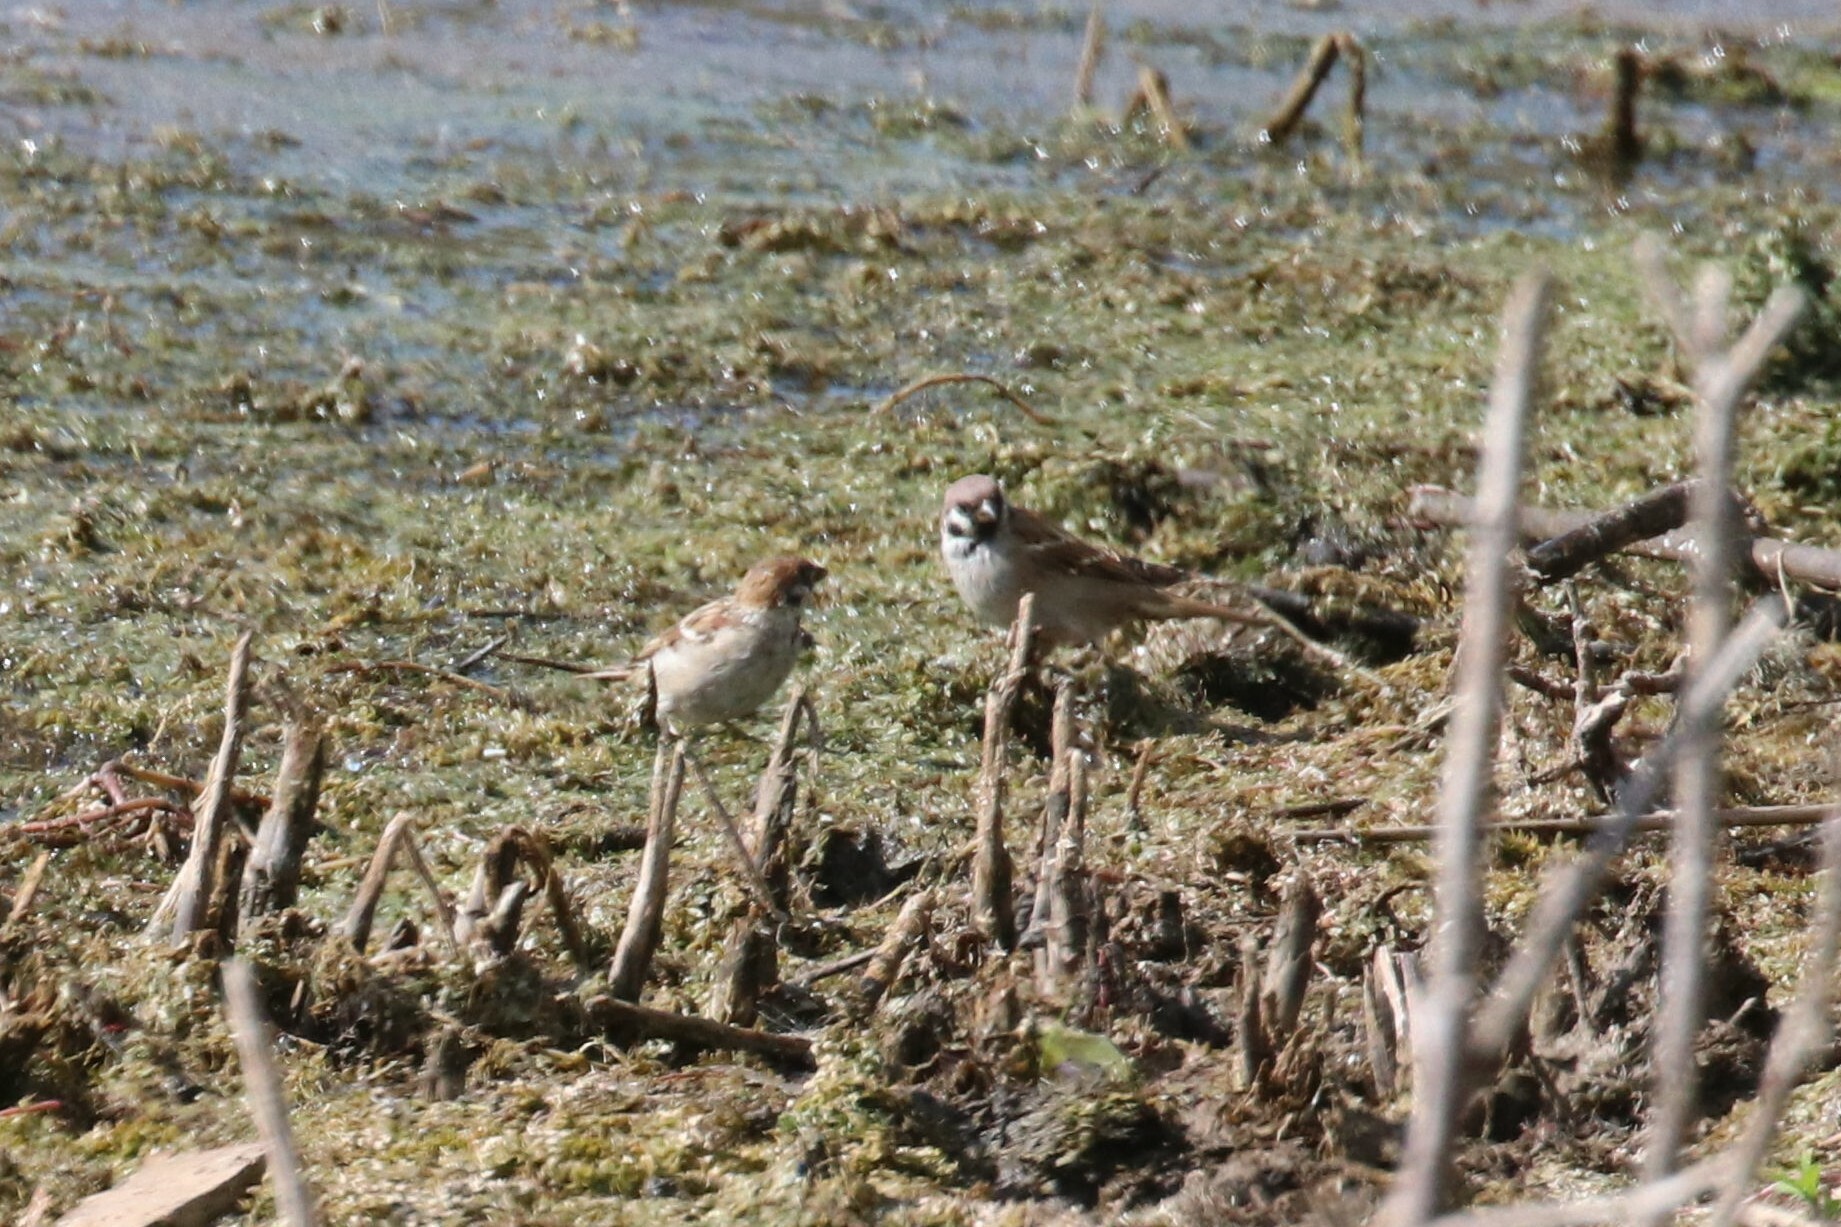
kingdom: Animalia
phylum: Chordata
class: Aves
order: Passeriformes
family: Passeridae
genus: Passer
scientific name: Passer montanus
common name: Eurasian tree sparrow
